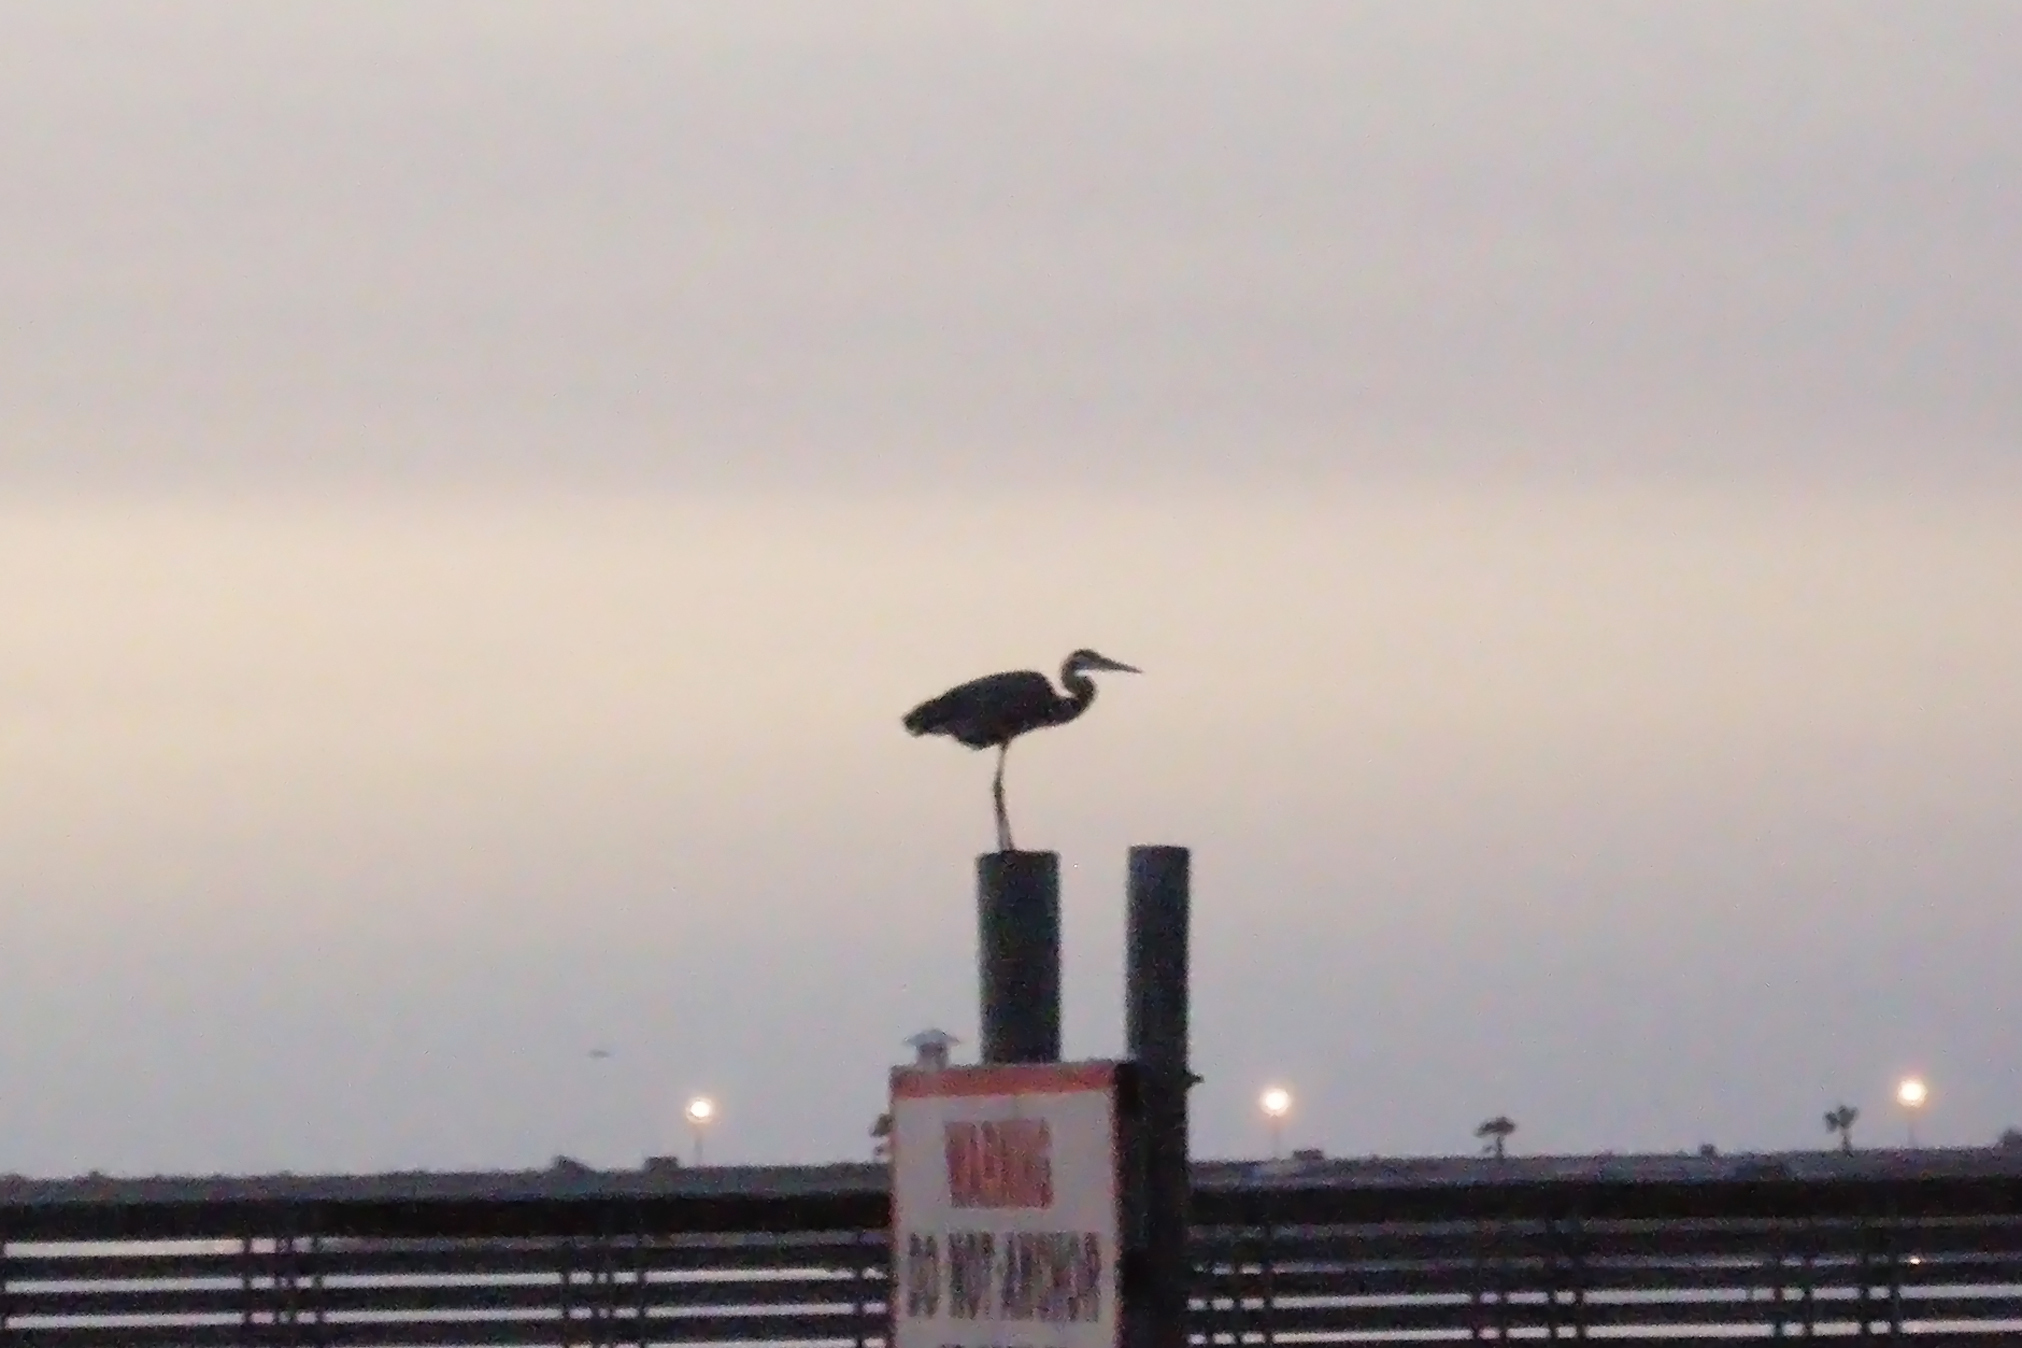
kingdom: Animalia
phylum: Chordata
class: Aves
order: Pelecaniformes
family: Ardeidae
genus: Ardea
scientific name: Ardea herodias
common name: Great blue heron
